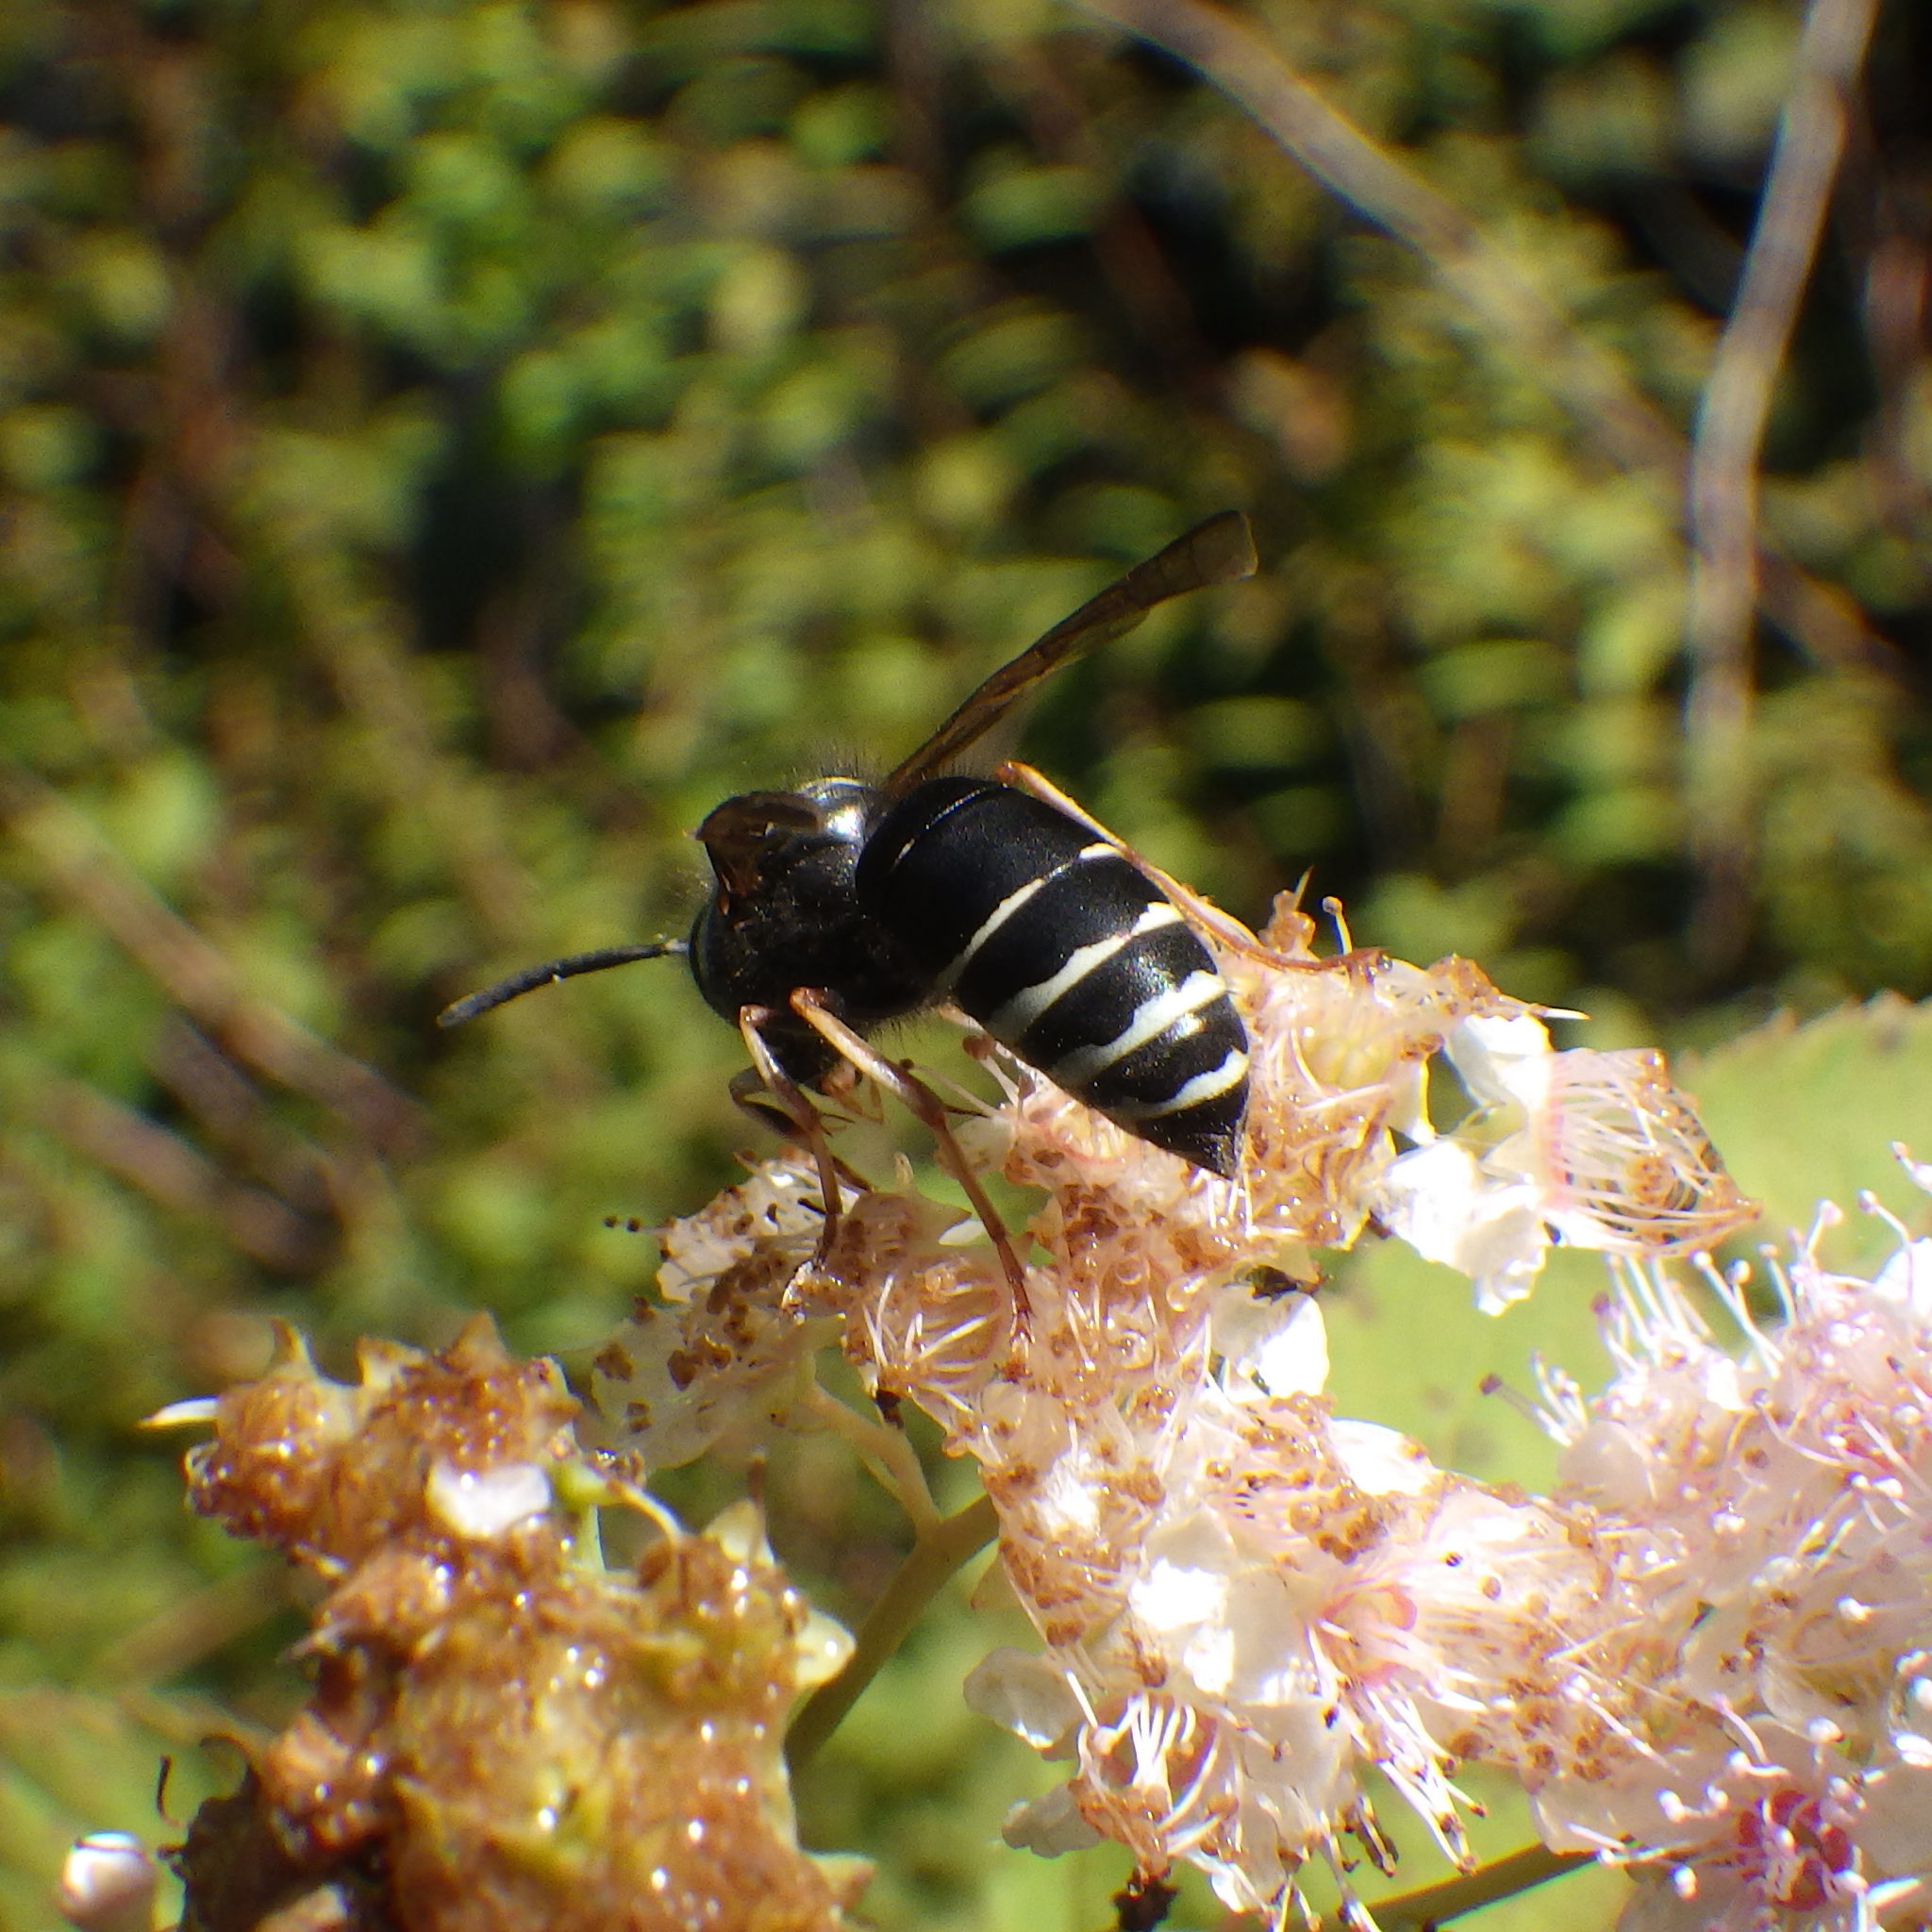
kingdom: Animalia
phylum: Arthropoda
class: Insecta
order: Hymenoptera
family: Vespidae
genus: Vespula
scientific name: Vespula consobrina
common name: Blackjacket
